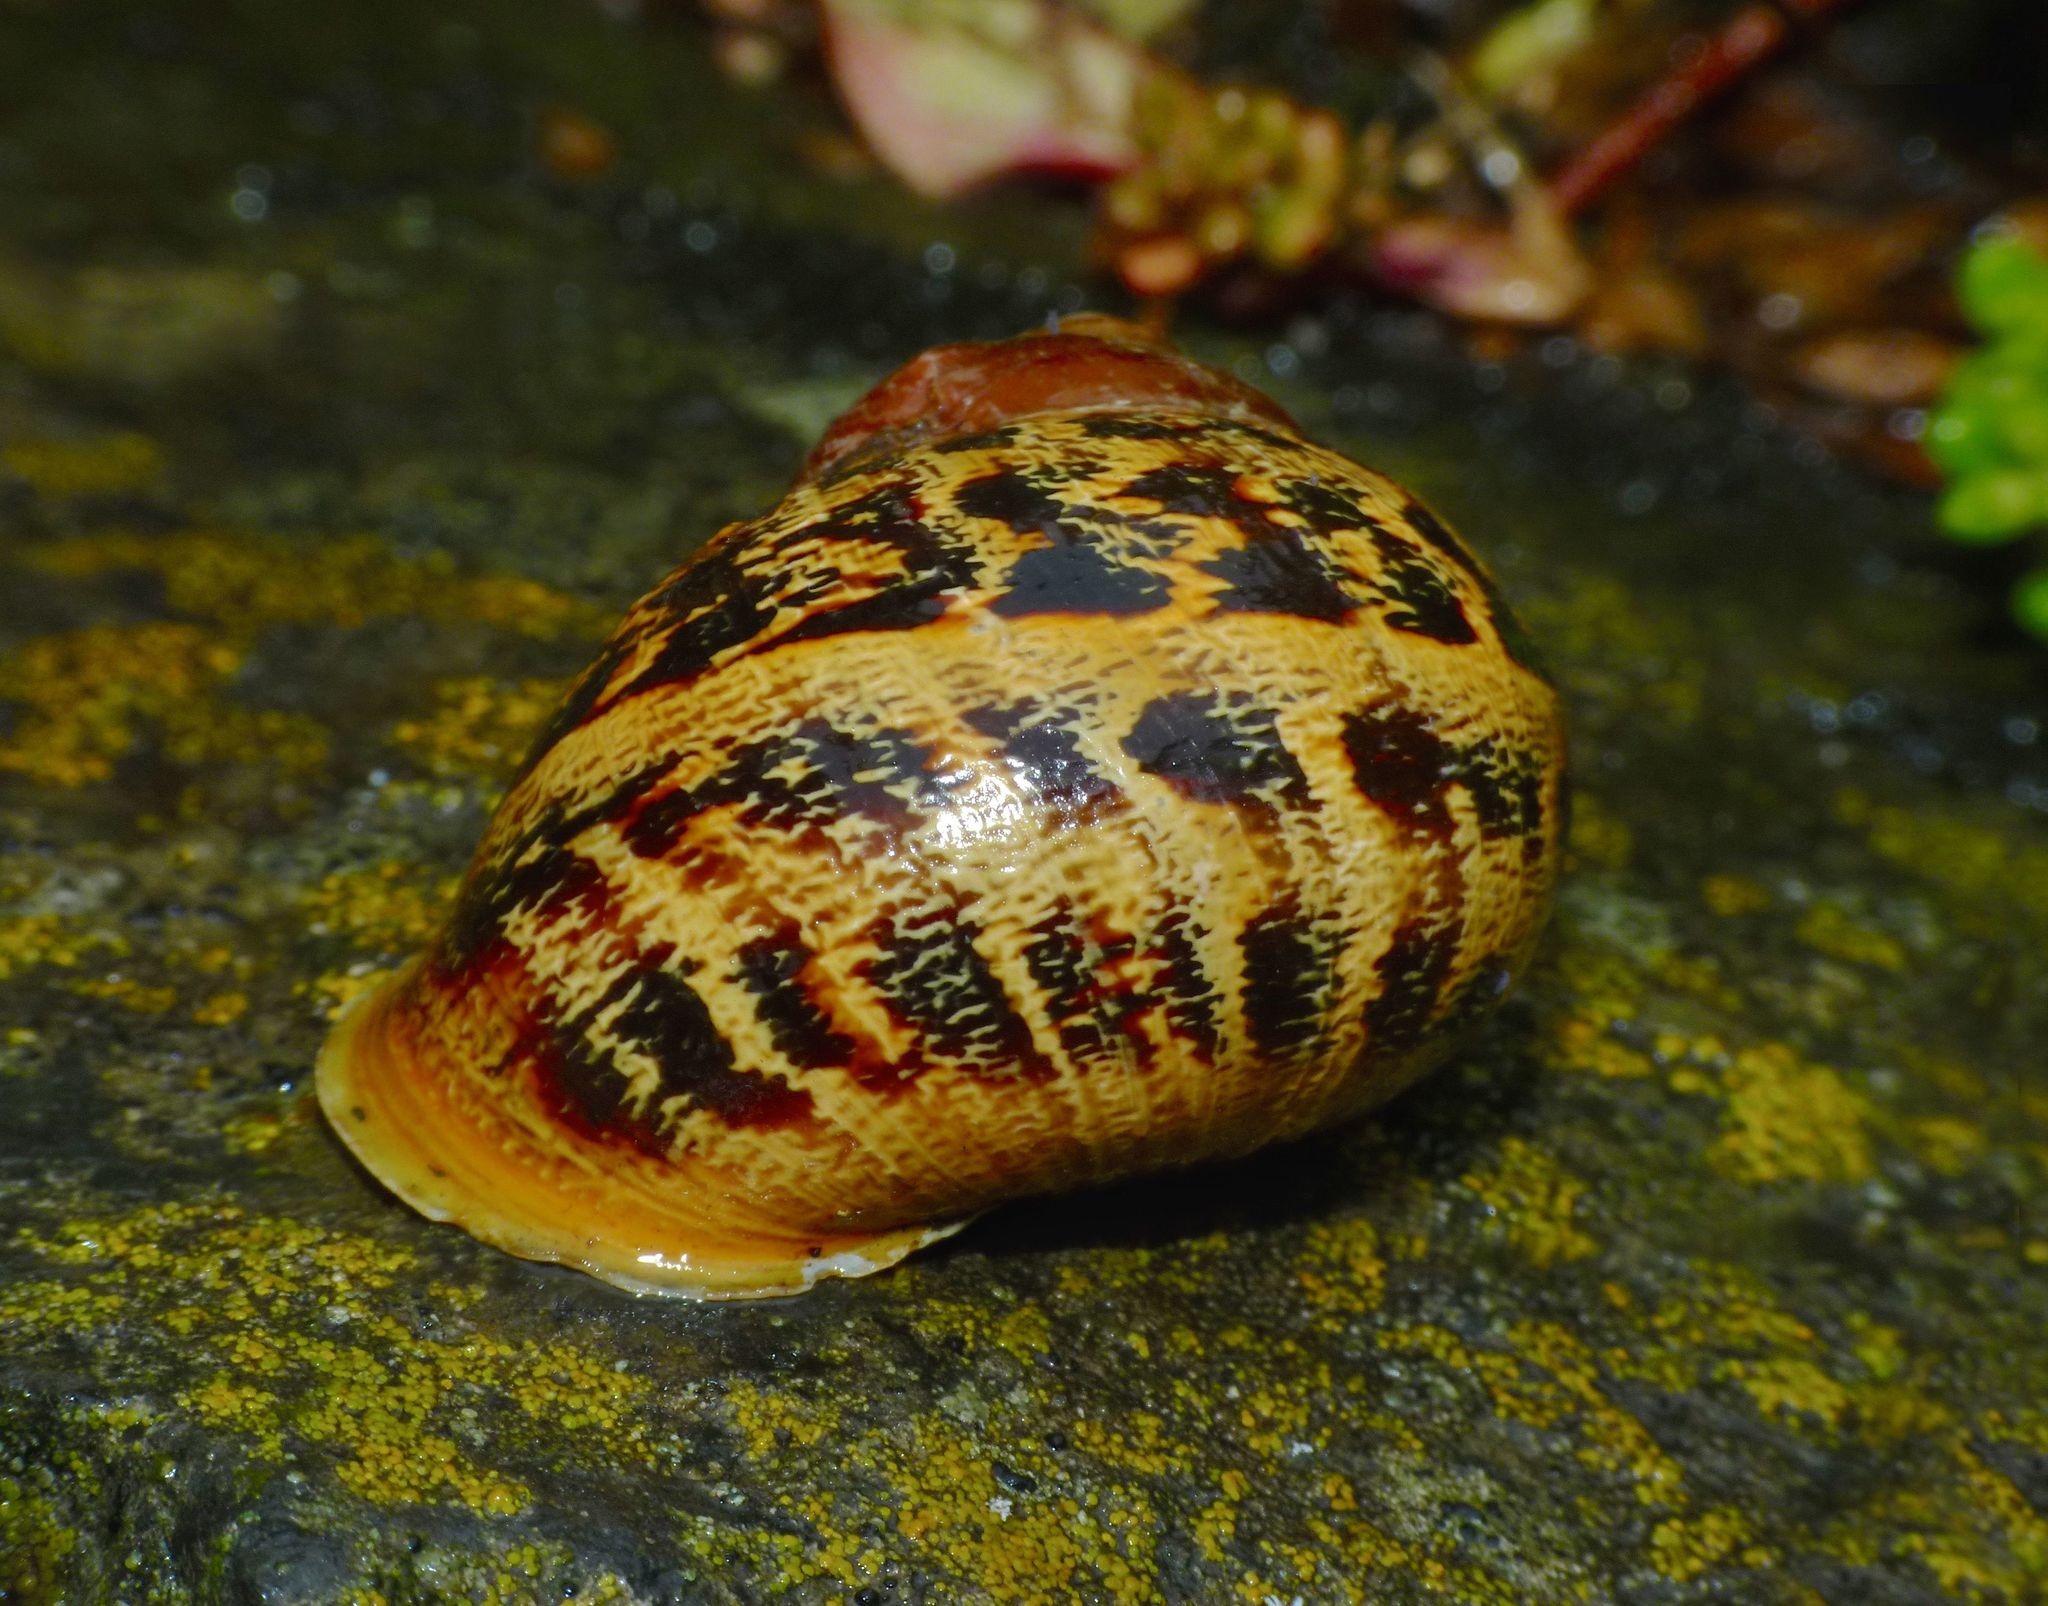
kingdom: Animalia
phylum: Mollusca
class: Gastropoda
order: Stylommatophora
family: Helicidae
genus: Cornu
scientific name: Cornu aspersum
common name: Brown garden snail
